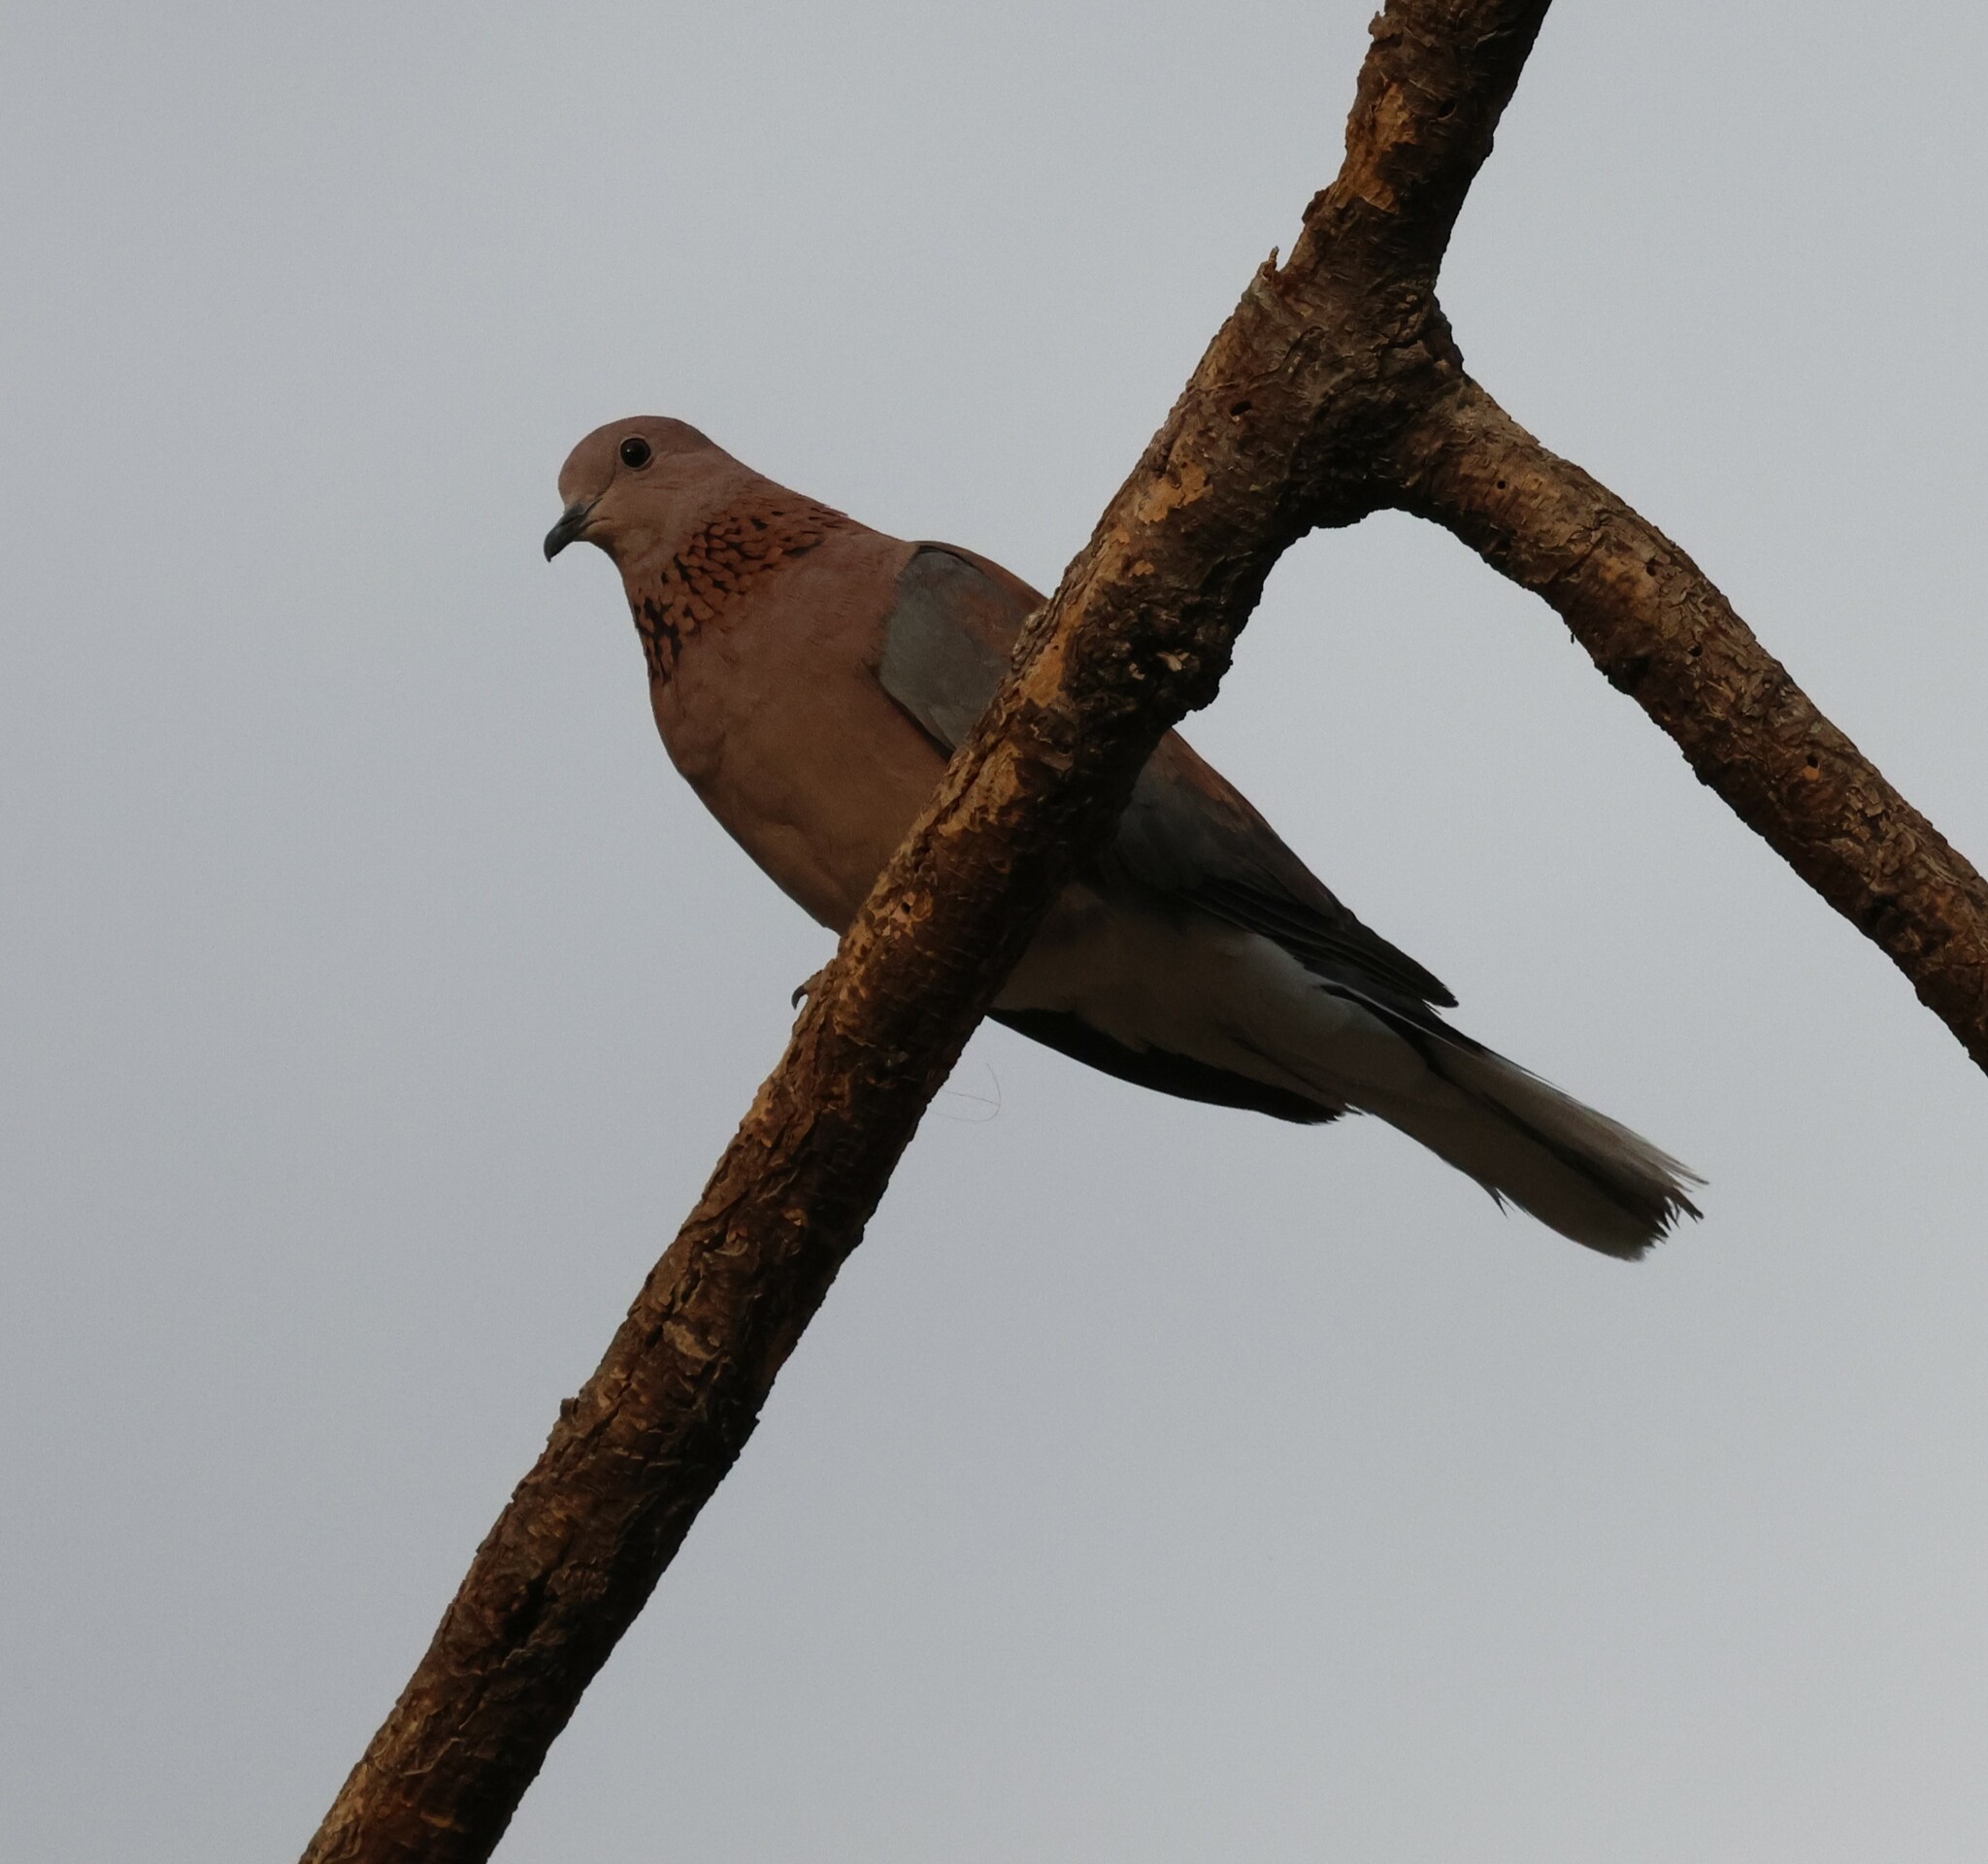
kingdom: Animalia
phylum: Chordata
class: Aves
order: Columbiformes
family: Columbidae
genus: Spilopelia
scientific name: Spilopelia senegalensis
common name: Laughing dove
